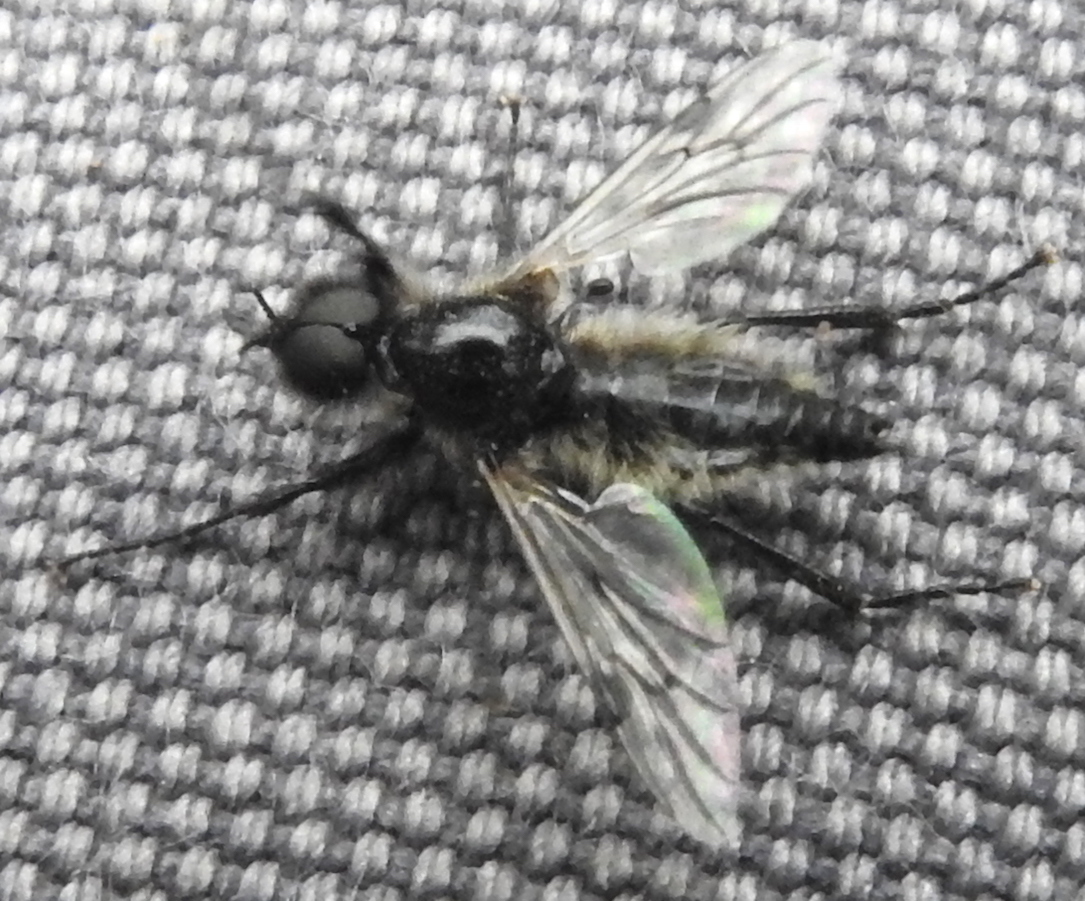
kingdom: Animalia
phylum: Arthropoda
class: Insecta
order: Diptera
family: Bibionidae
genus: Bibio
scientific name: Bibio albipennis
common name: White-winged march fly
